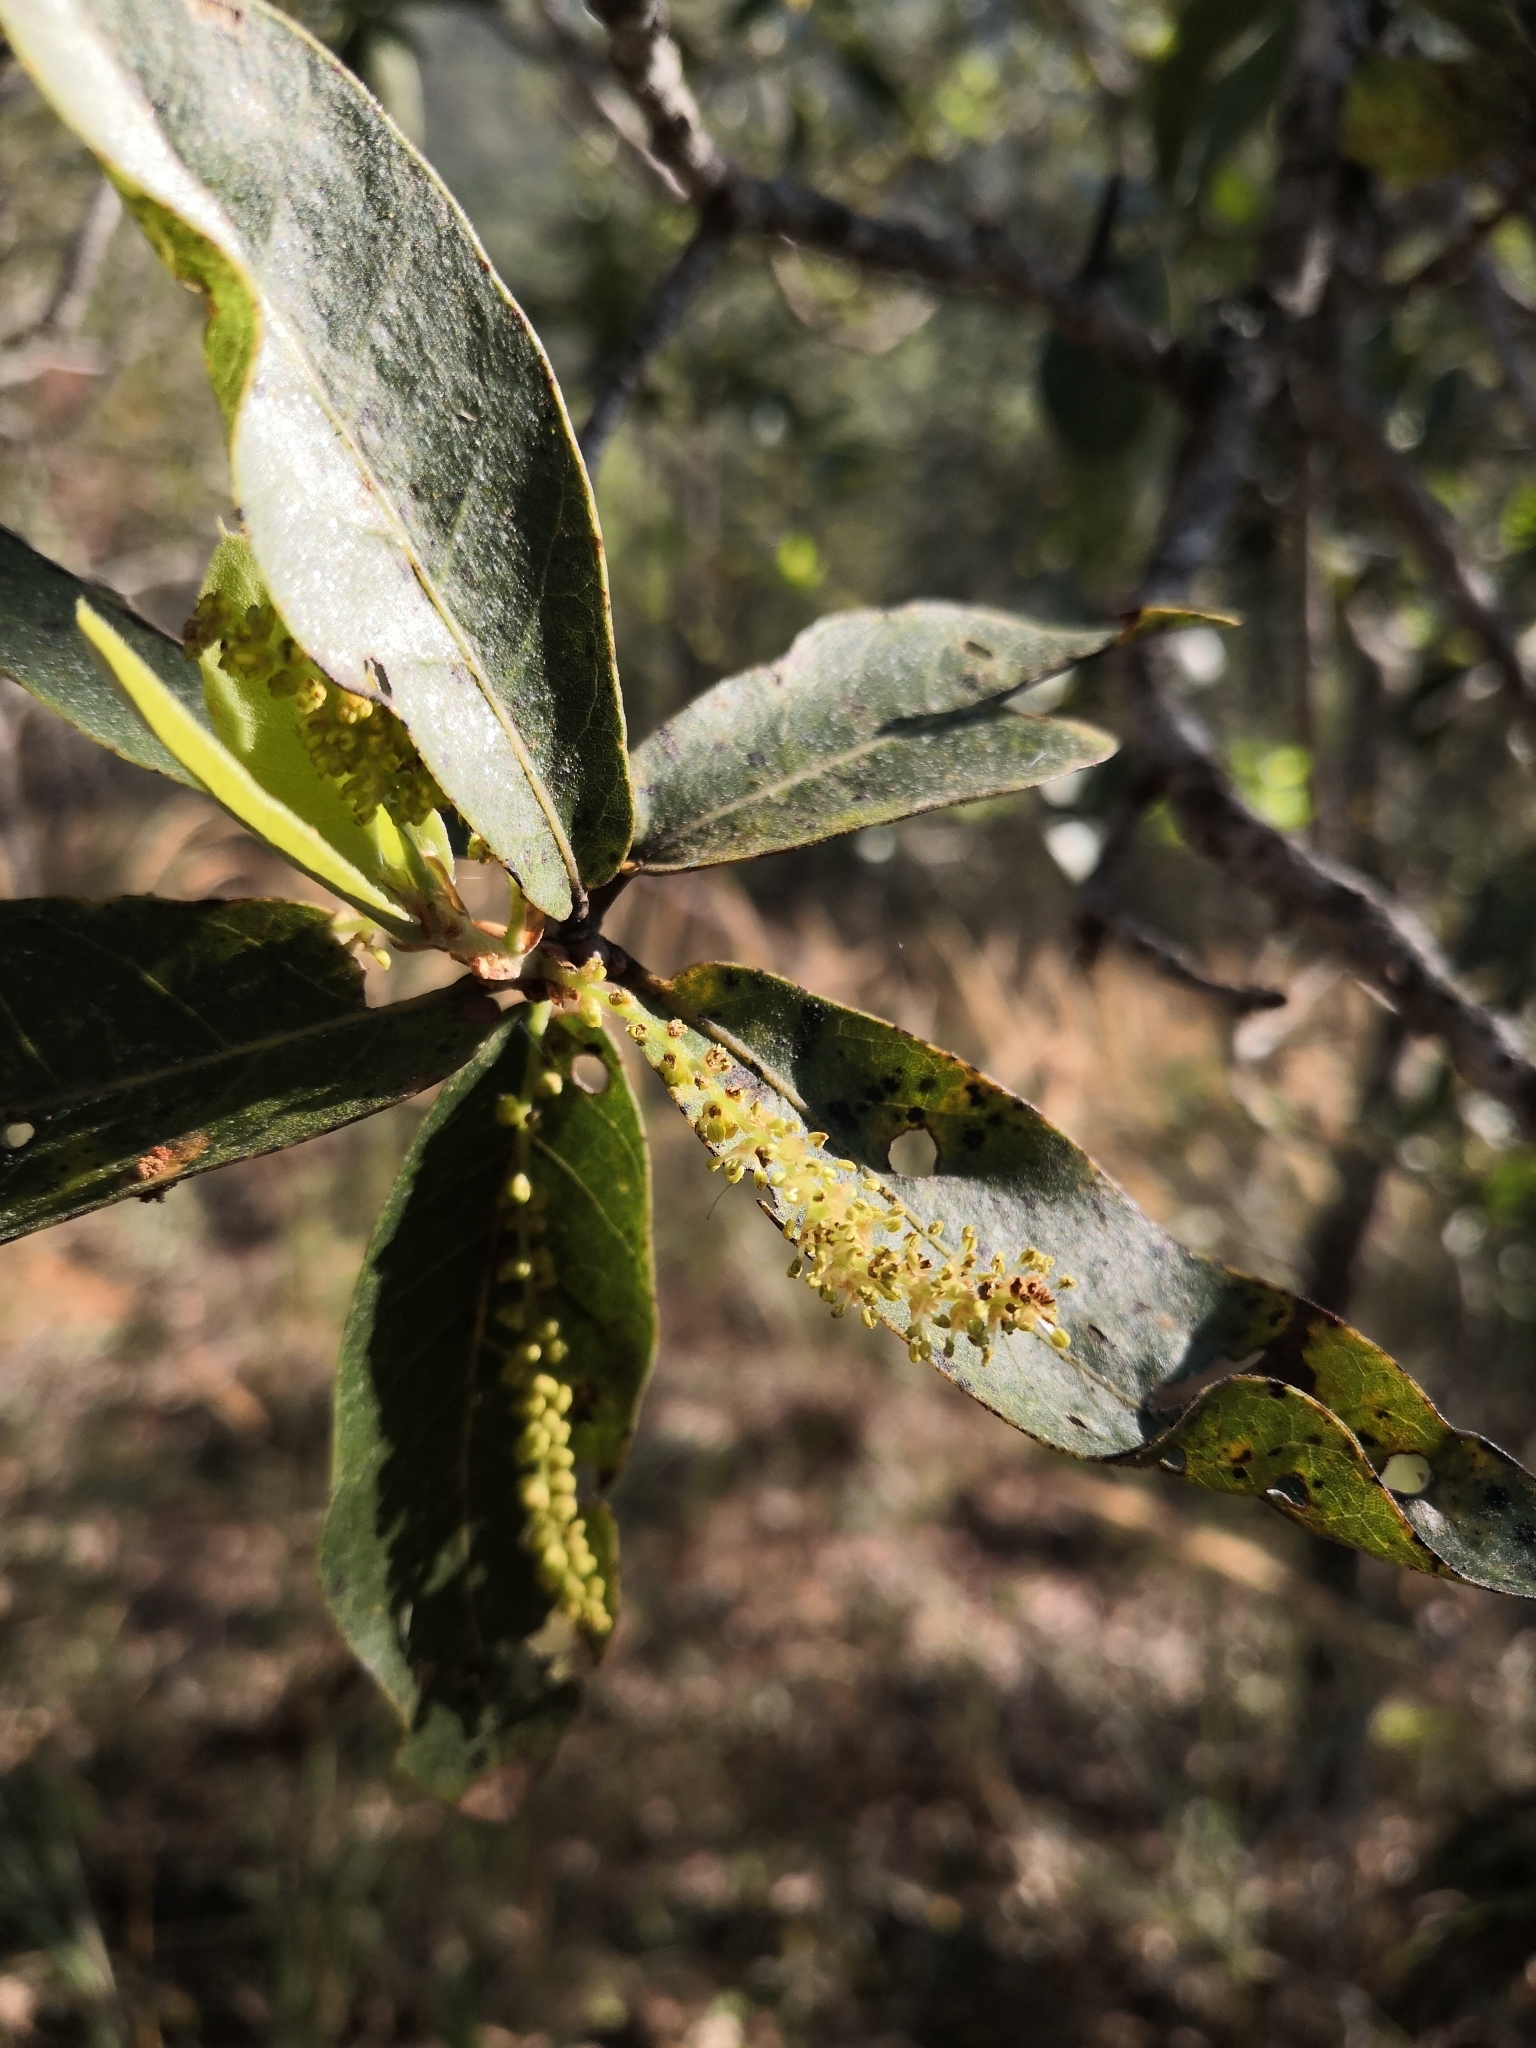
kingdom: Plantae
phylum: Tracheophyta
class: Magnoliopsida
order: Fagales
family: Fagaceae
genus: Quercus
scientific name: Quercus aristata
